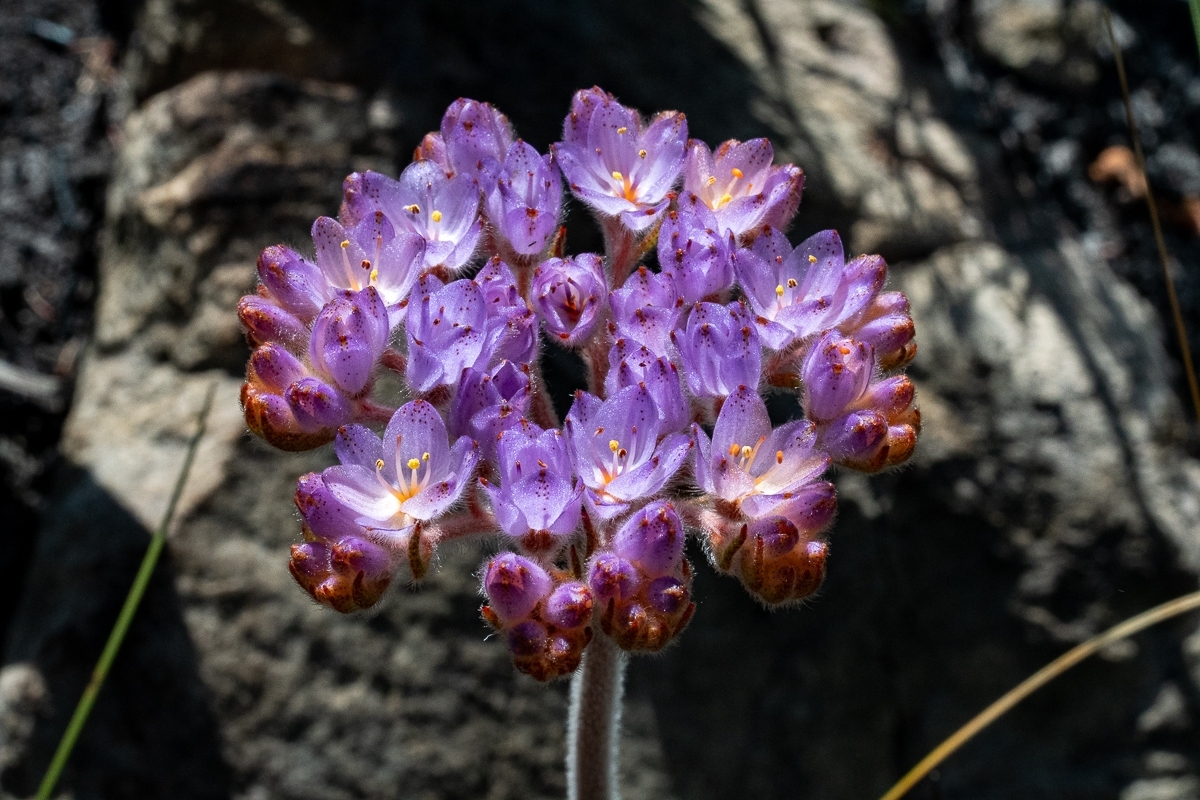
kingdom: Plantae
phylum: Tracheophyta
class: Liliopsida
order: Commelinales
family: Haemodoraceae
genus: Dilatris
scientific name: Dilatris pillansii
